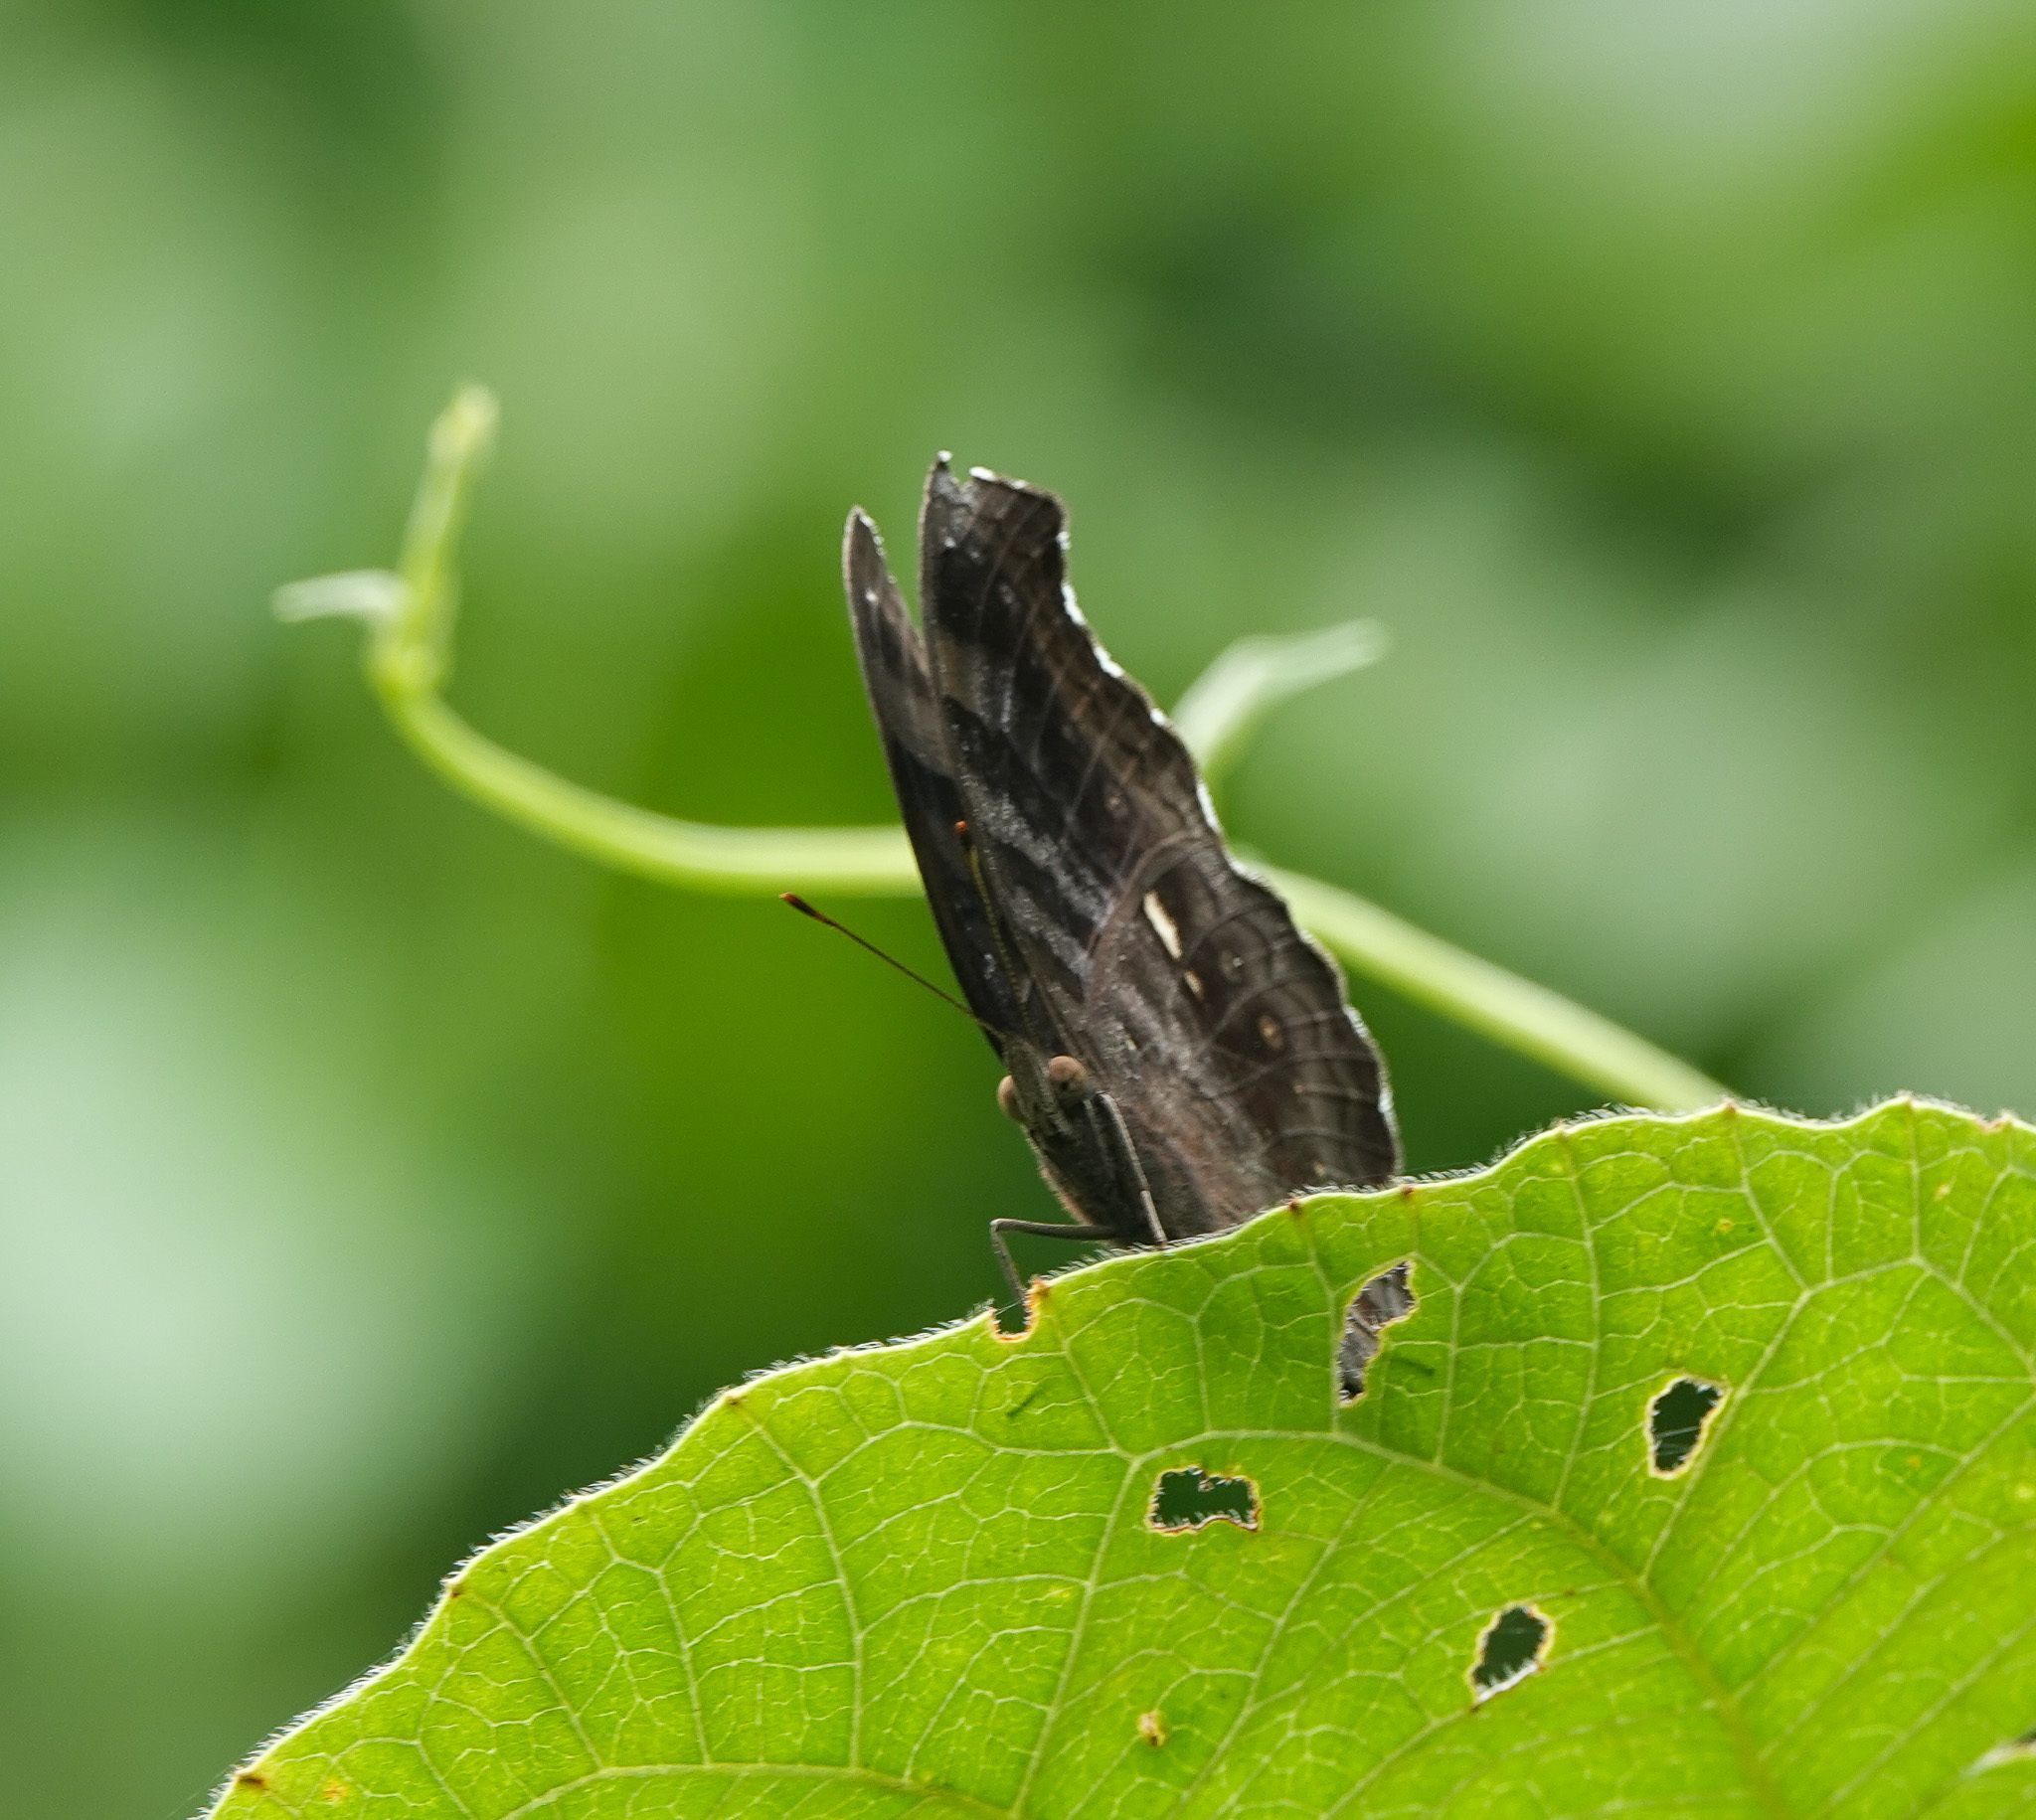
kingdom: Animalia
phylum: Arthropoda
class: Insecta
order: Lepidoptera
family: Nymphalidae
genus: Junonia
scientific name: Junonia iphita
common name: Chocolate pansy
